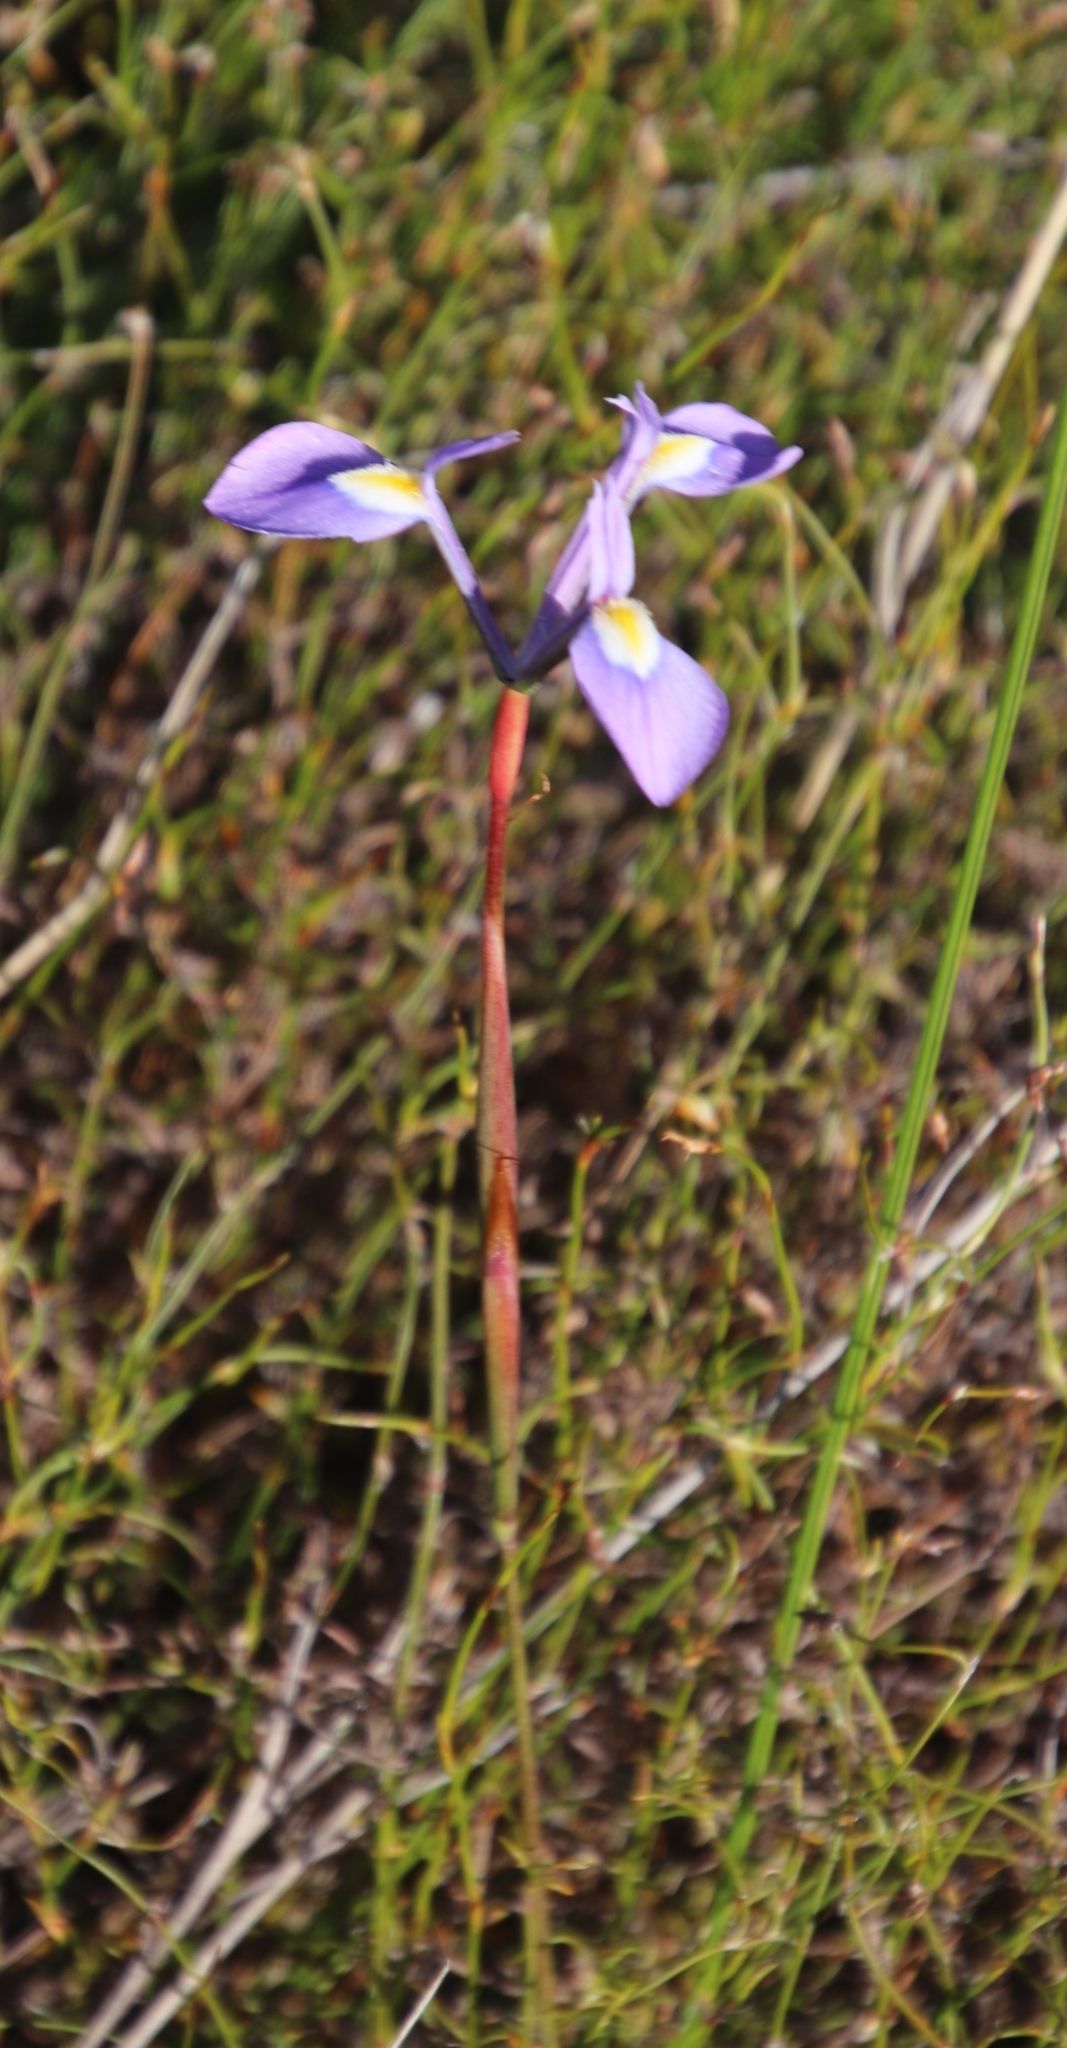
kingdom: Plantae
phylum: Tracheophyta
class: Liliopsida
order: Asparagales
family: Iridaceae
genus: Moraea
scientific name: Moraea tripetala
